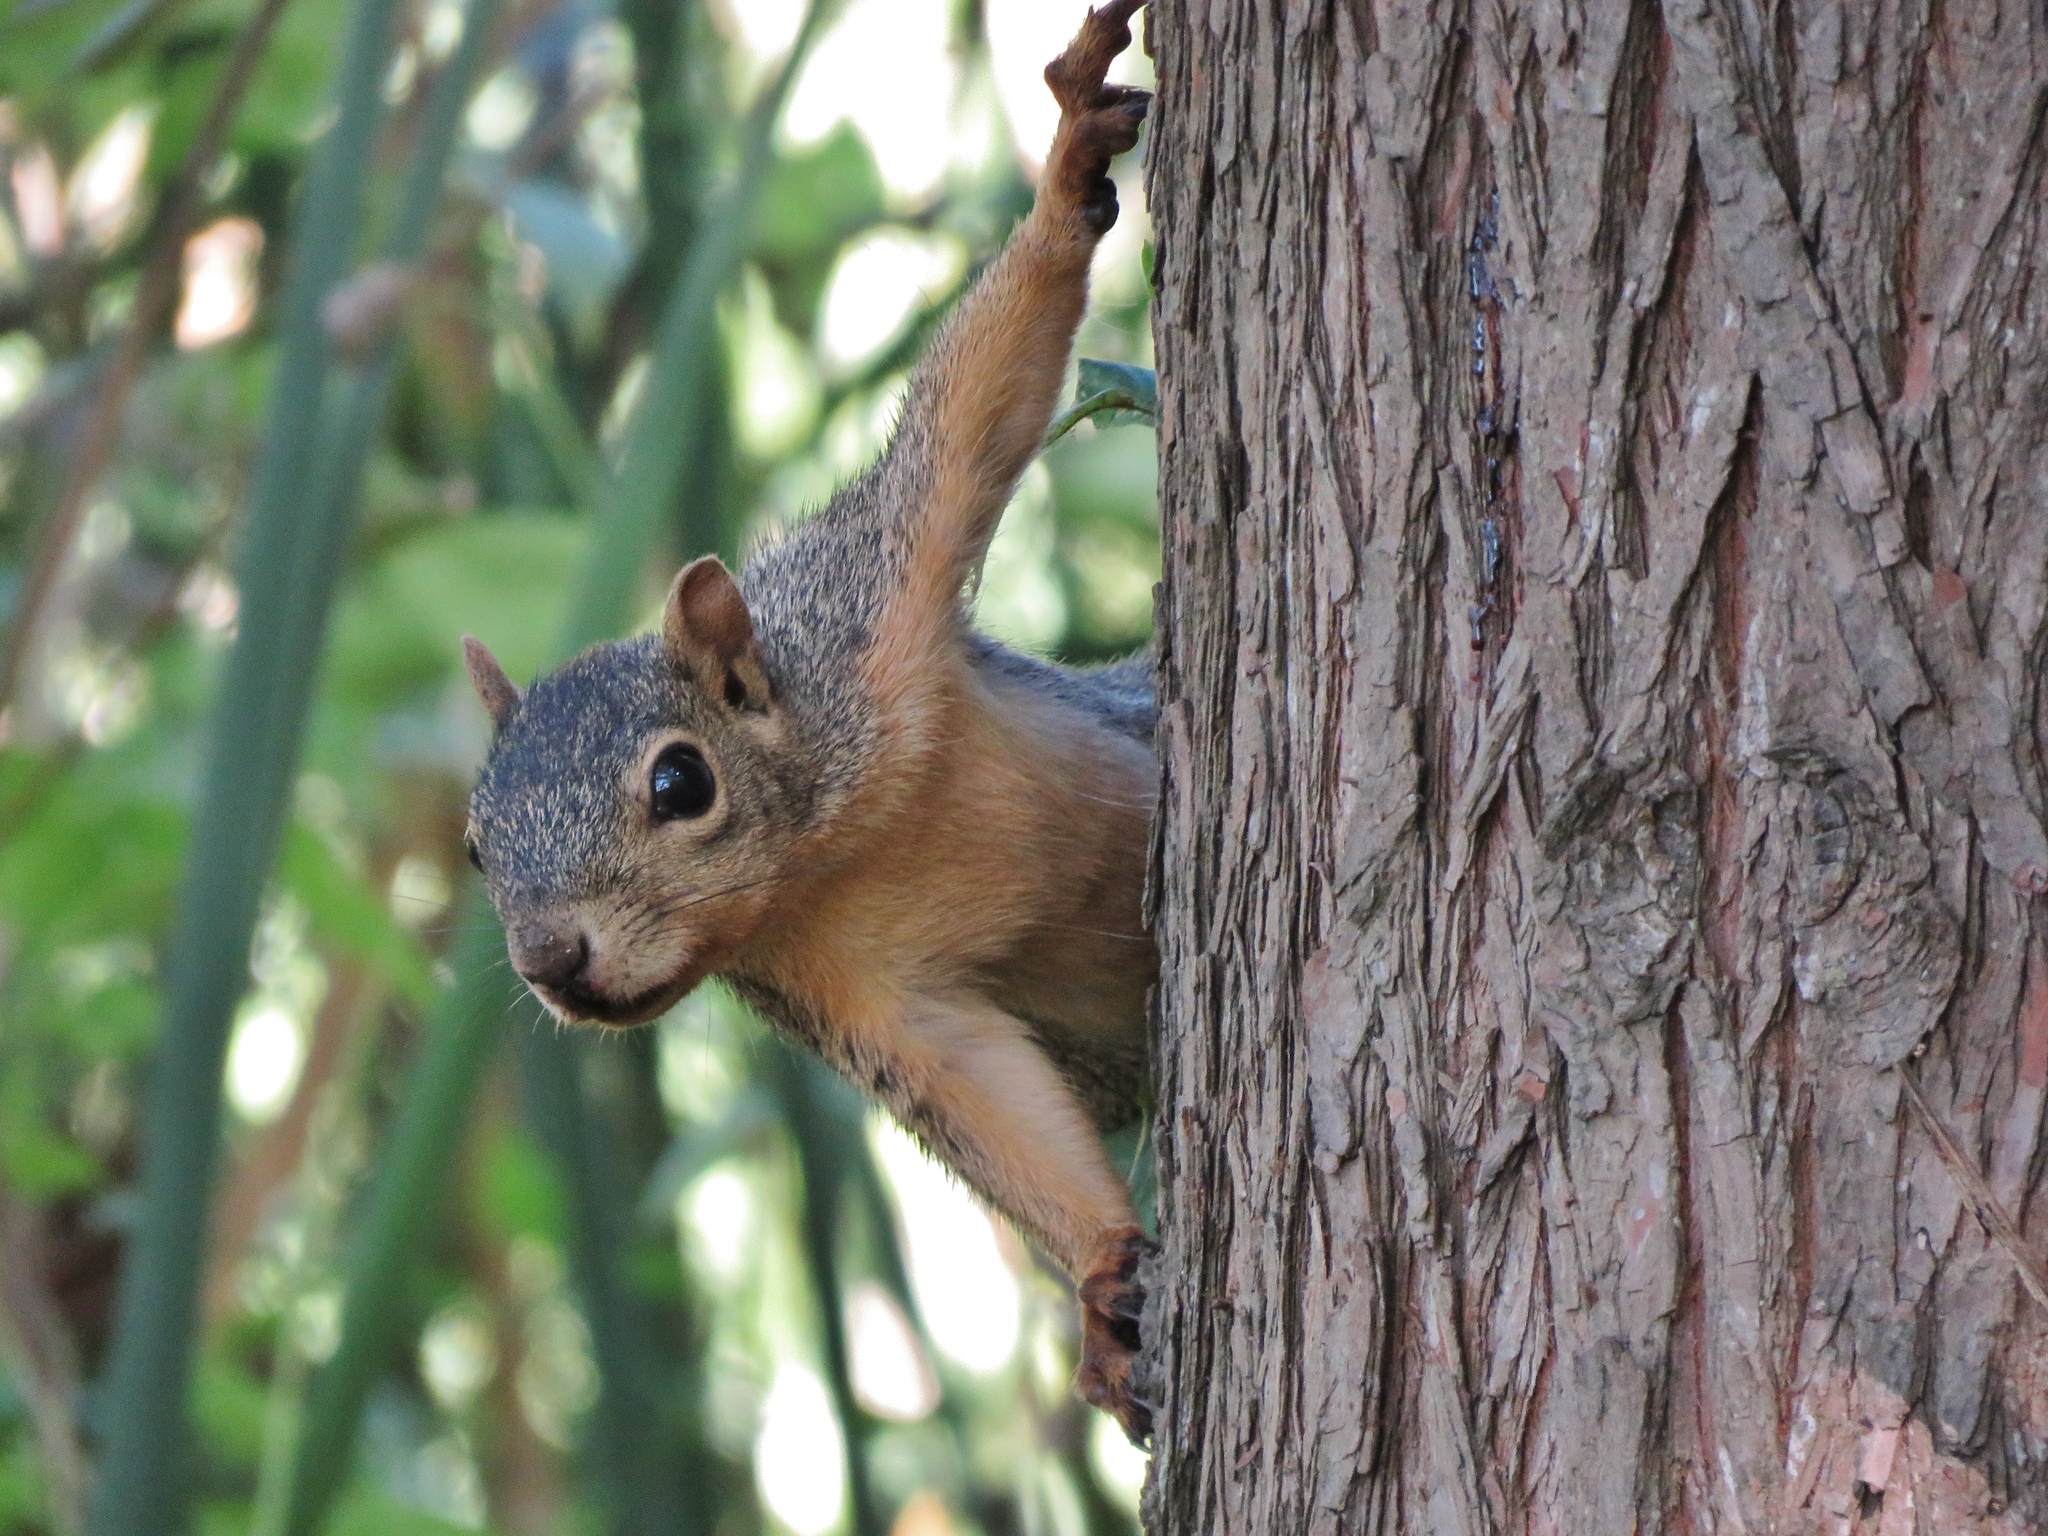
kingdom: Animalia
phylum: Chordata
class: Mammalia
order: Rodentia
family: Sciuridae
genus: Sciurus
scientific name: Sciurus niger
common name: Fox squirrel
